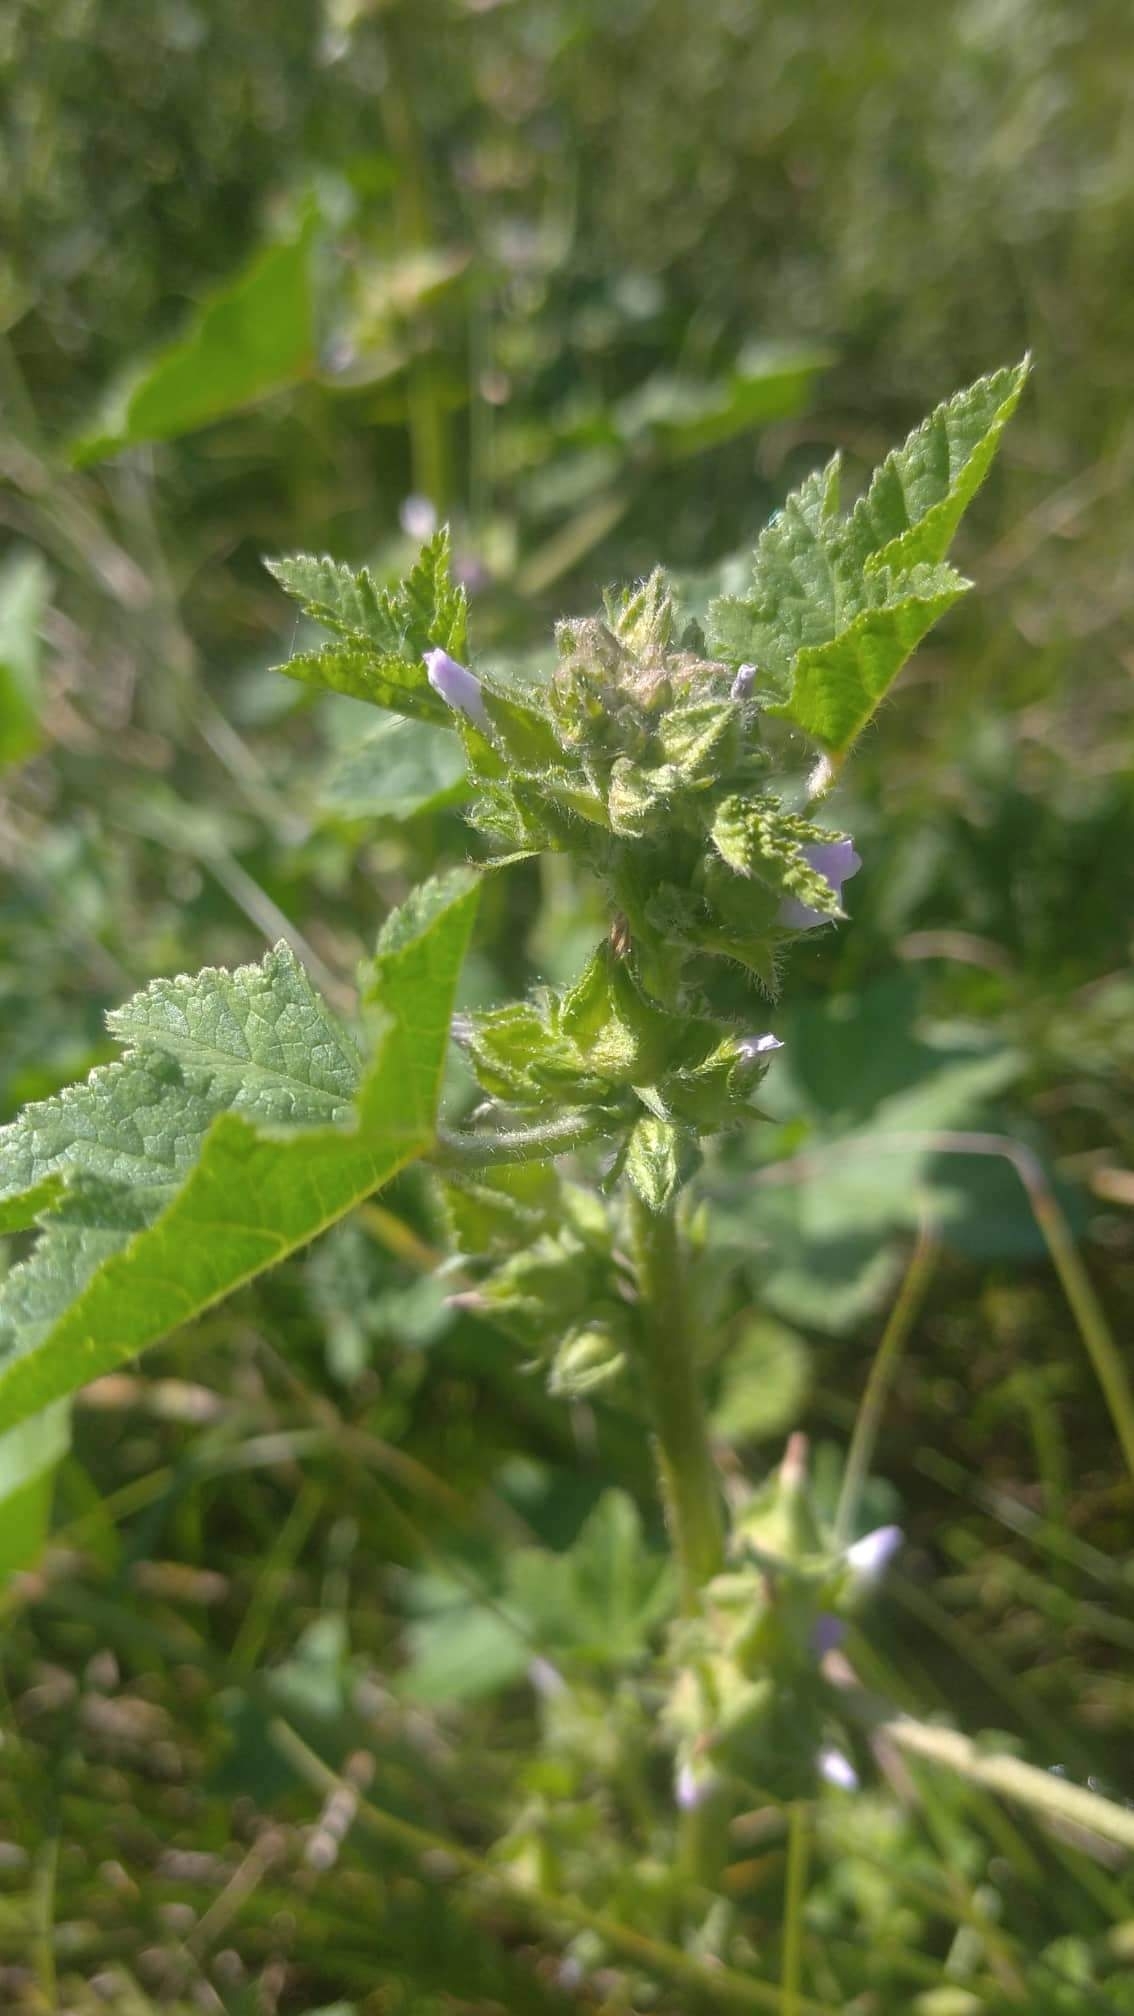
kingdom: Plantae
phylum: Tracheophyta
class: Magnoliopsida
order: Malvales
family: Malvaceae
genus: Malva
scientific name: Malva verticillata
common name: Chinese mallow
